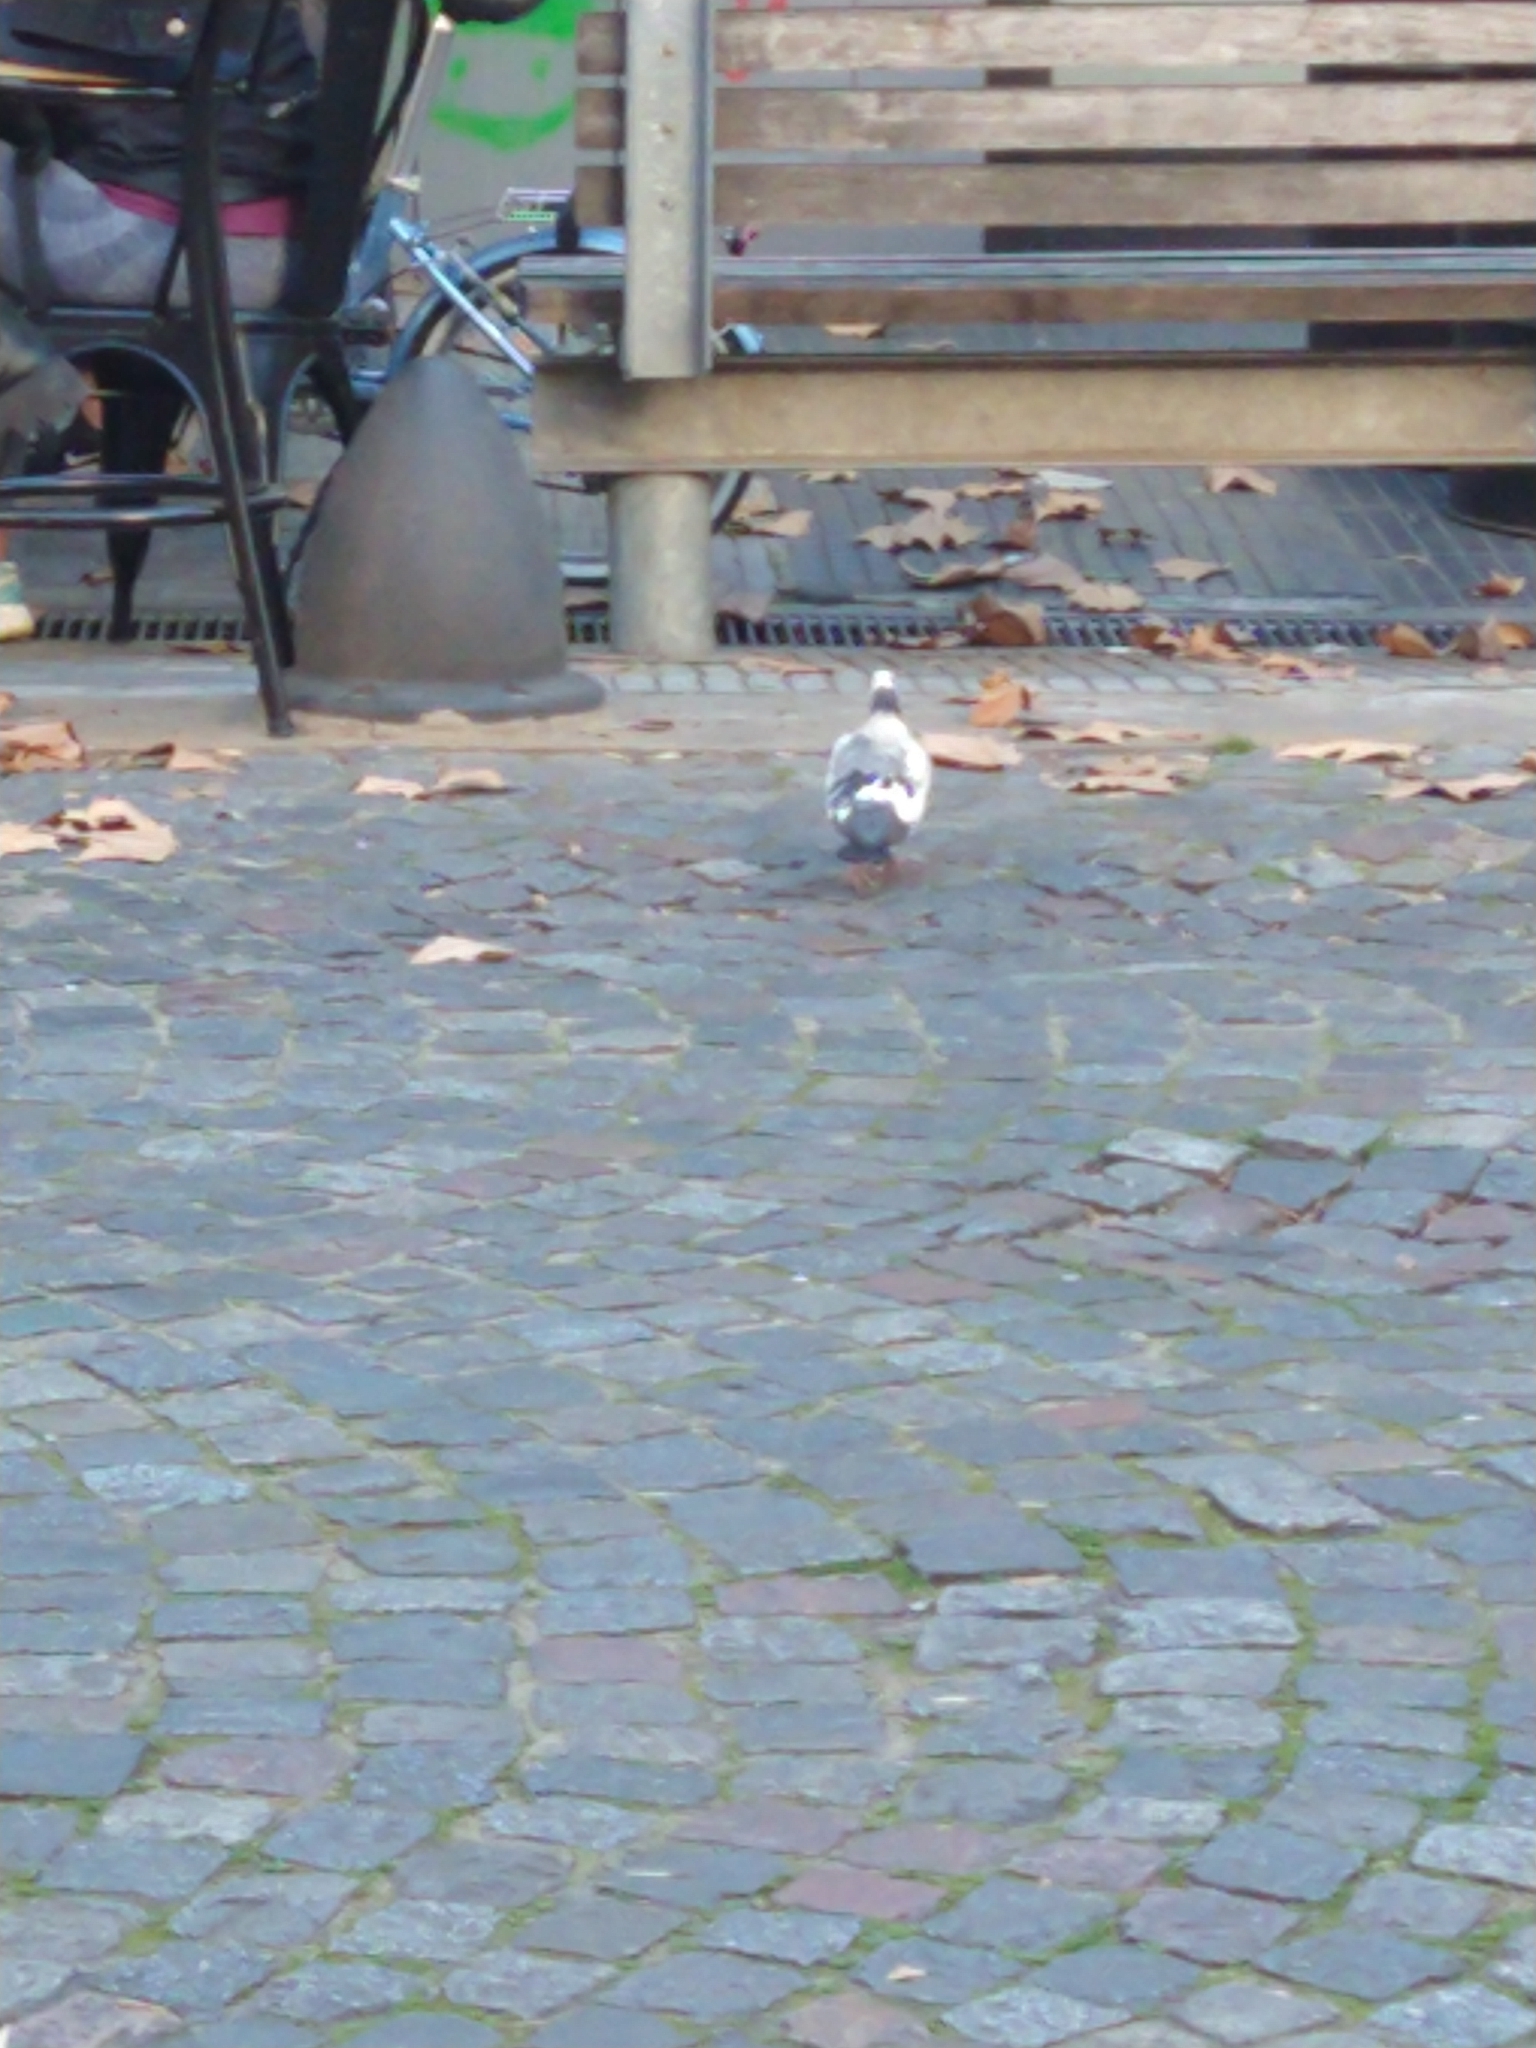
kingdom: Animalia
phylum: Chordata
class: Aves
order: Columbiformes
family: Columbidae
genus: Columba
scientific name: Columba livia
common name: Rock pigeon
